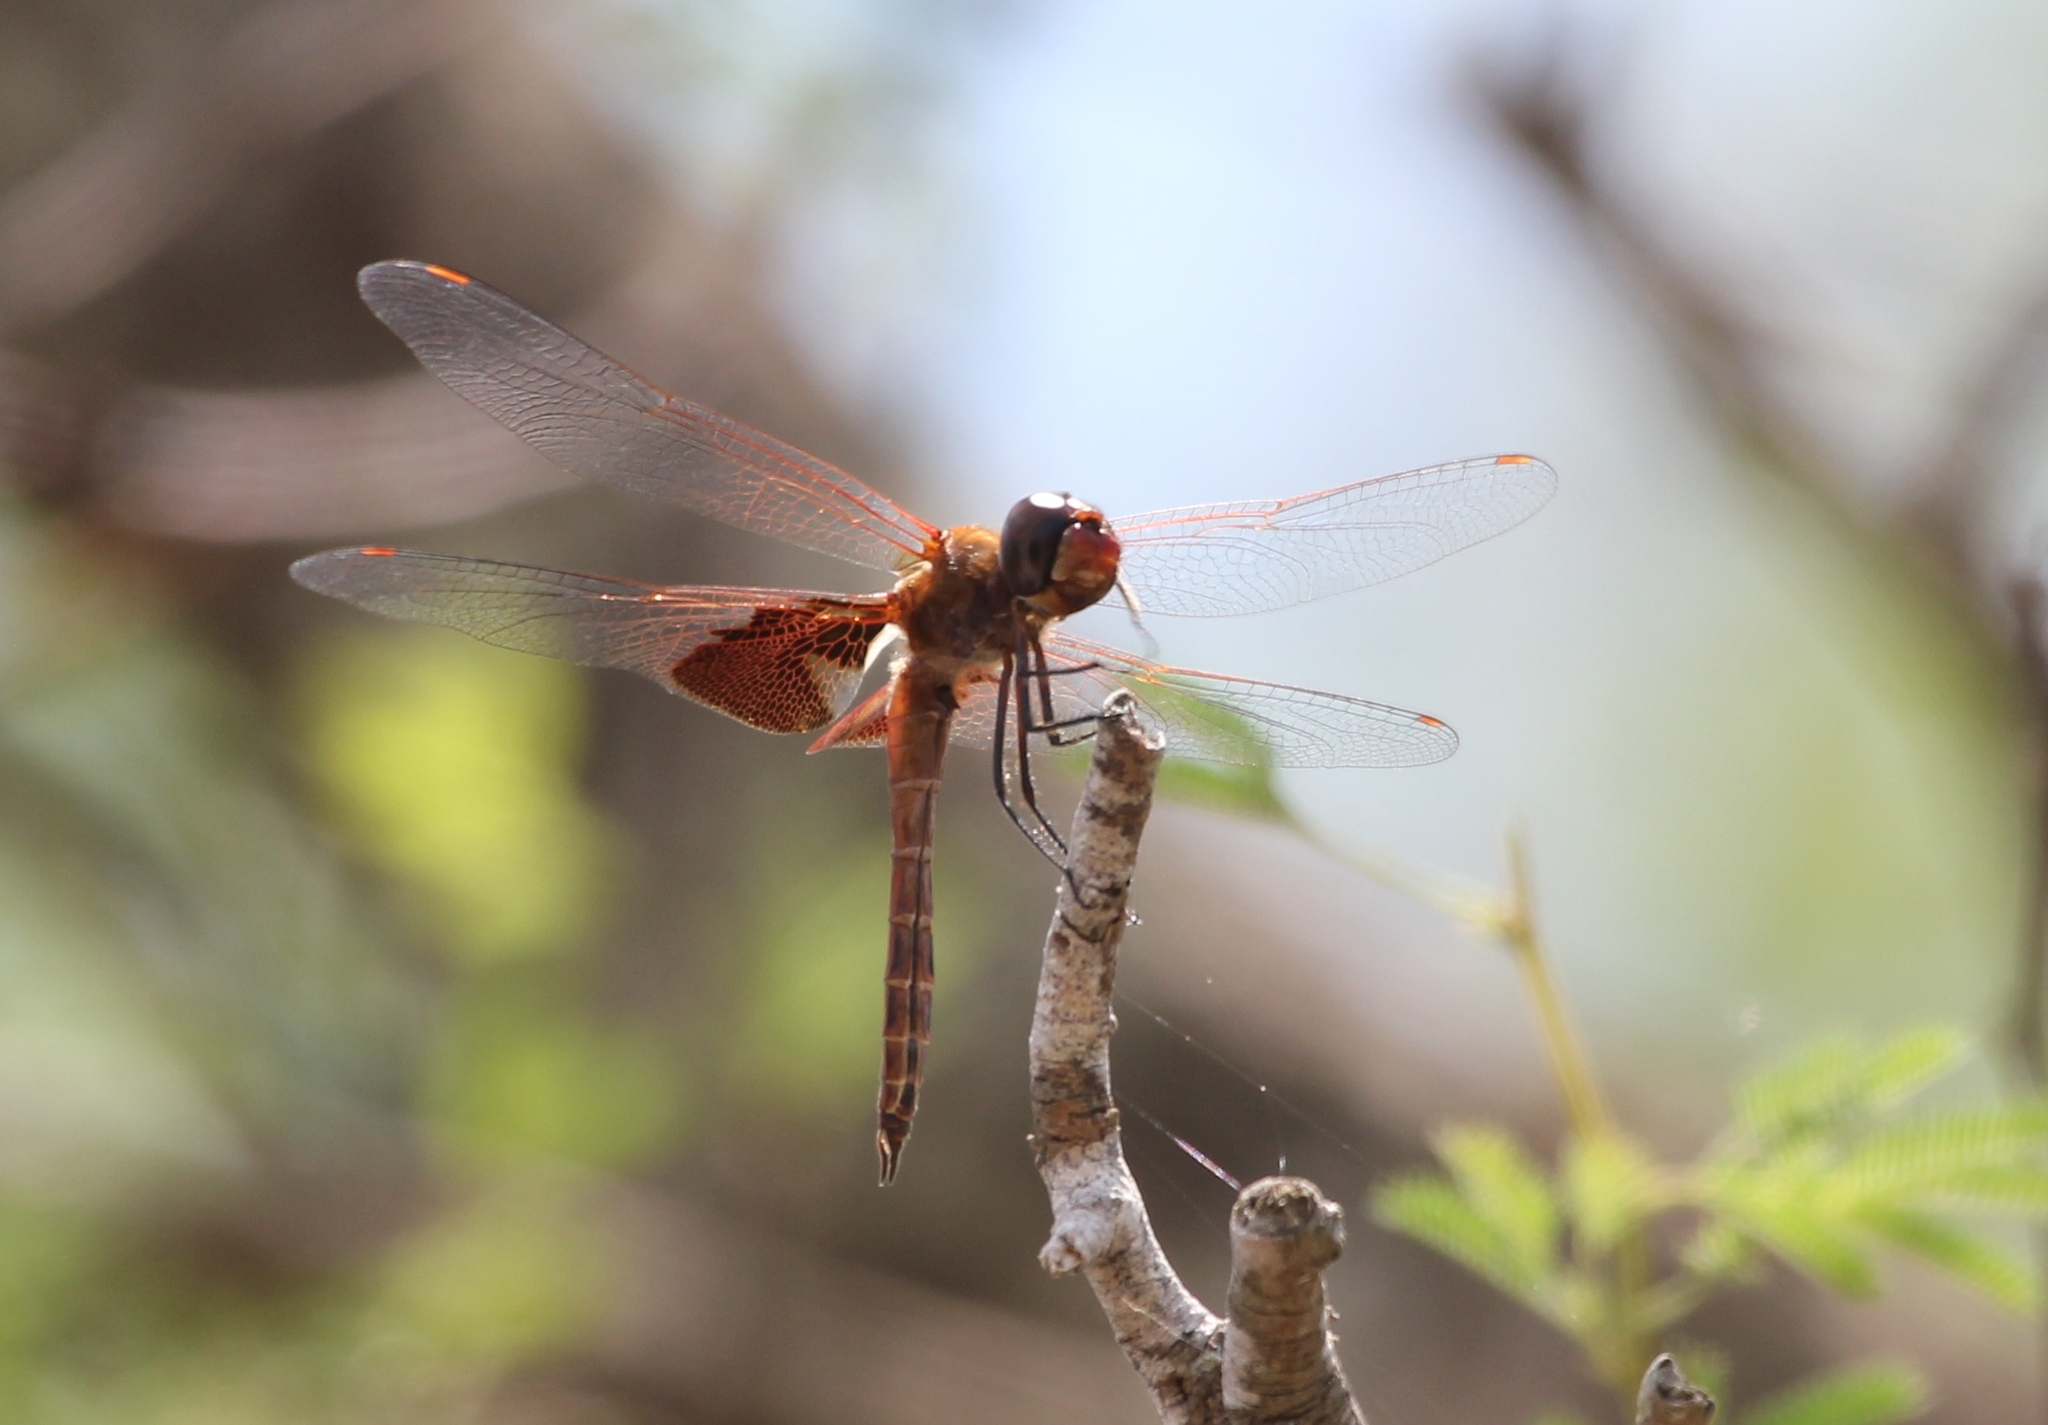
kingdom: Animalia
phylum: Arthropoda
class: Insecta
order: Odonata
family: Libellulidae
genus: Tramea
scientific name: Tramea onusta
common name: Red saddlebags
